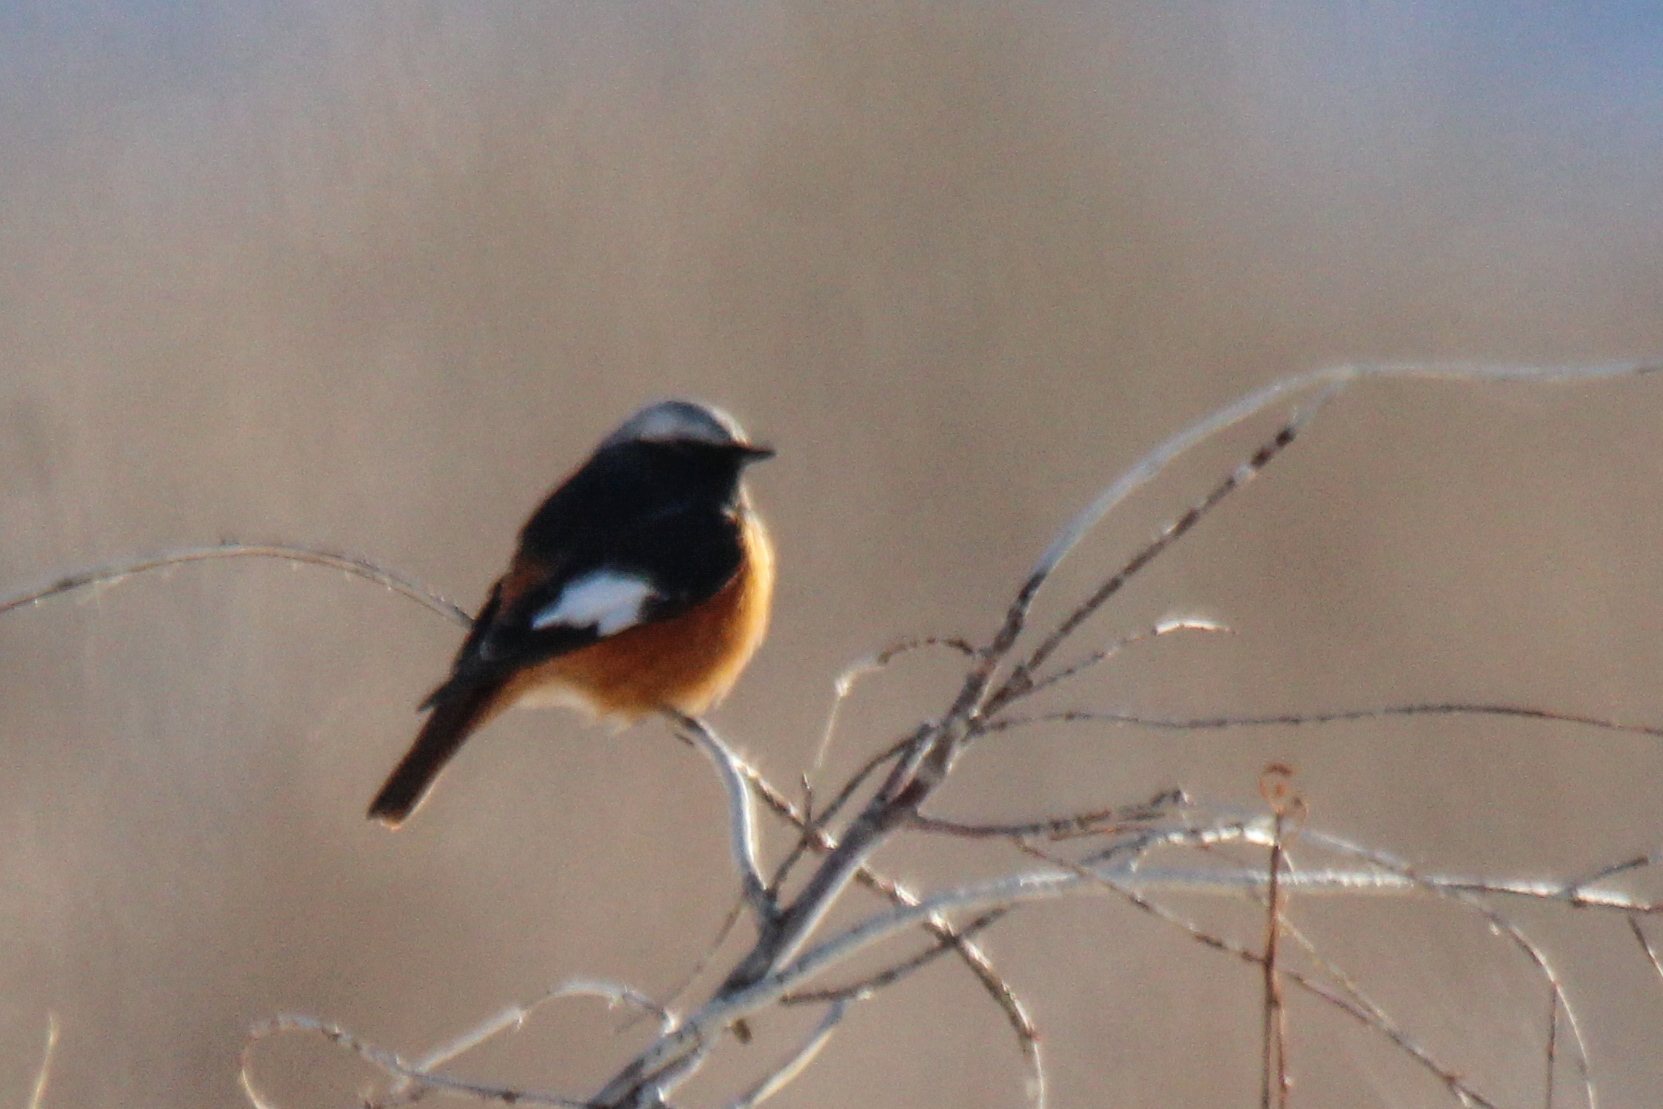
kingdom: Animalia
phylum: Chordata
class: Aves
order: Passeriformes
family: Muscicapidae
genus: Phoenicurus
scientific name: Phoenicurus erythrogastrus
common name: Güldenstädt's redstart
